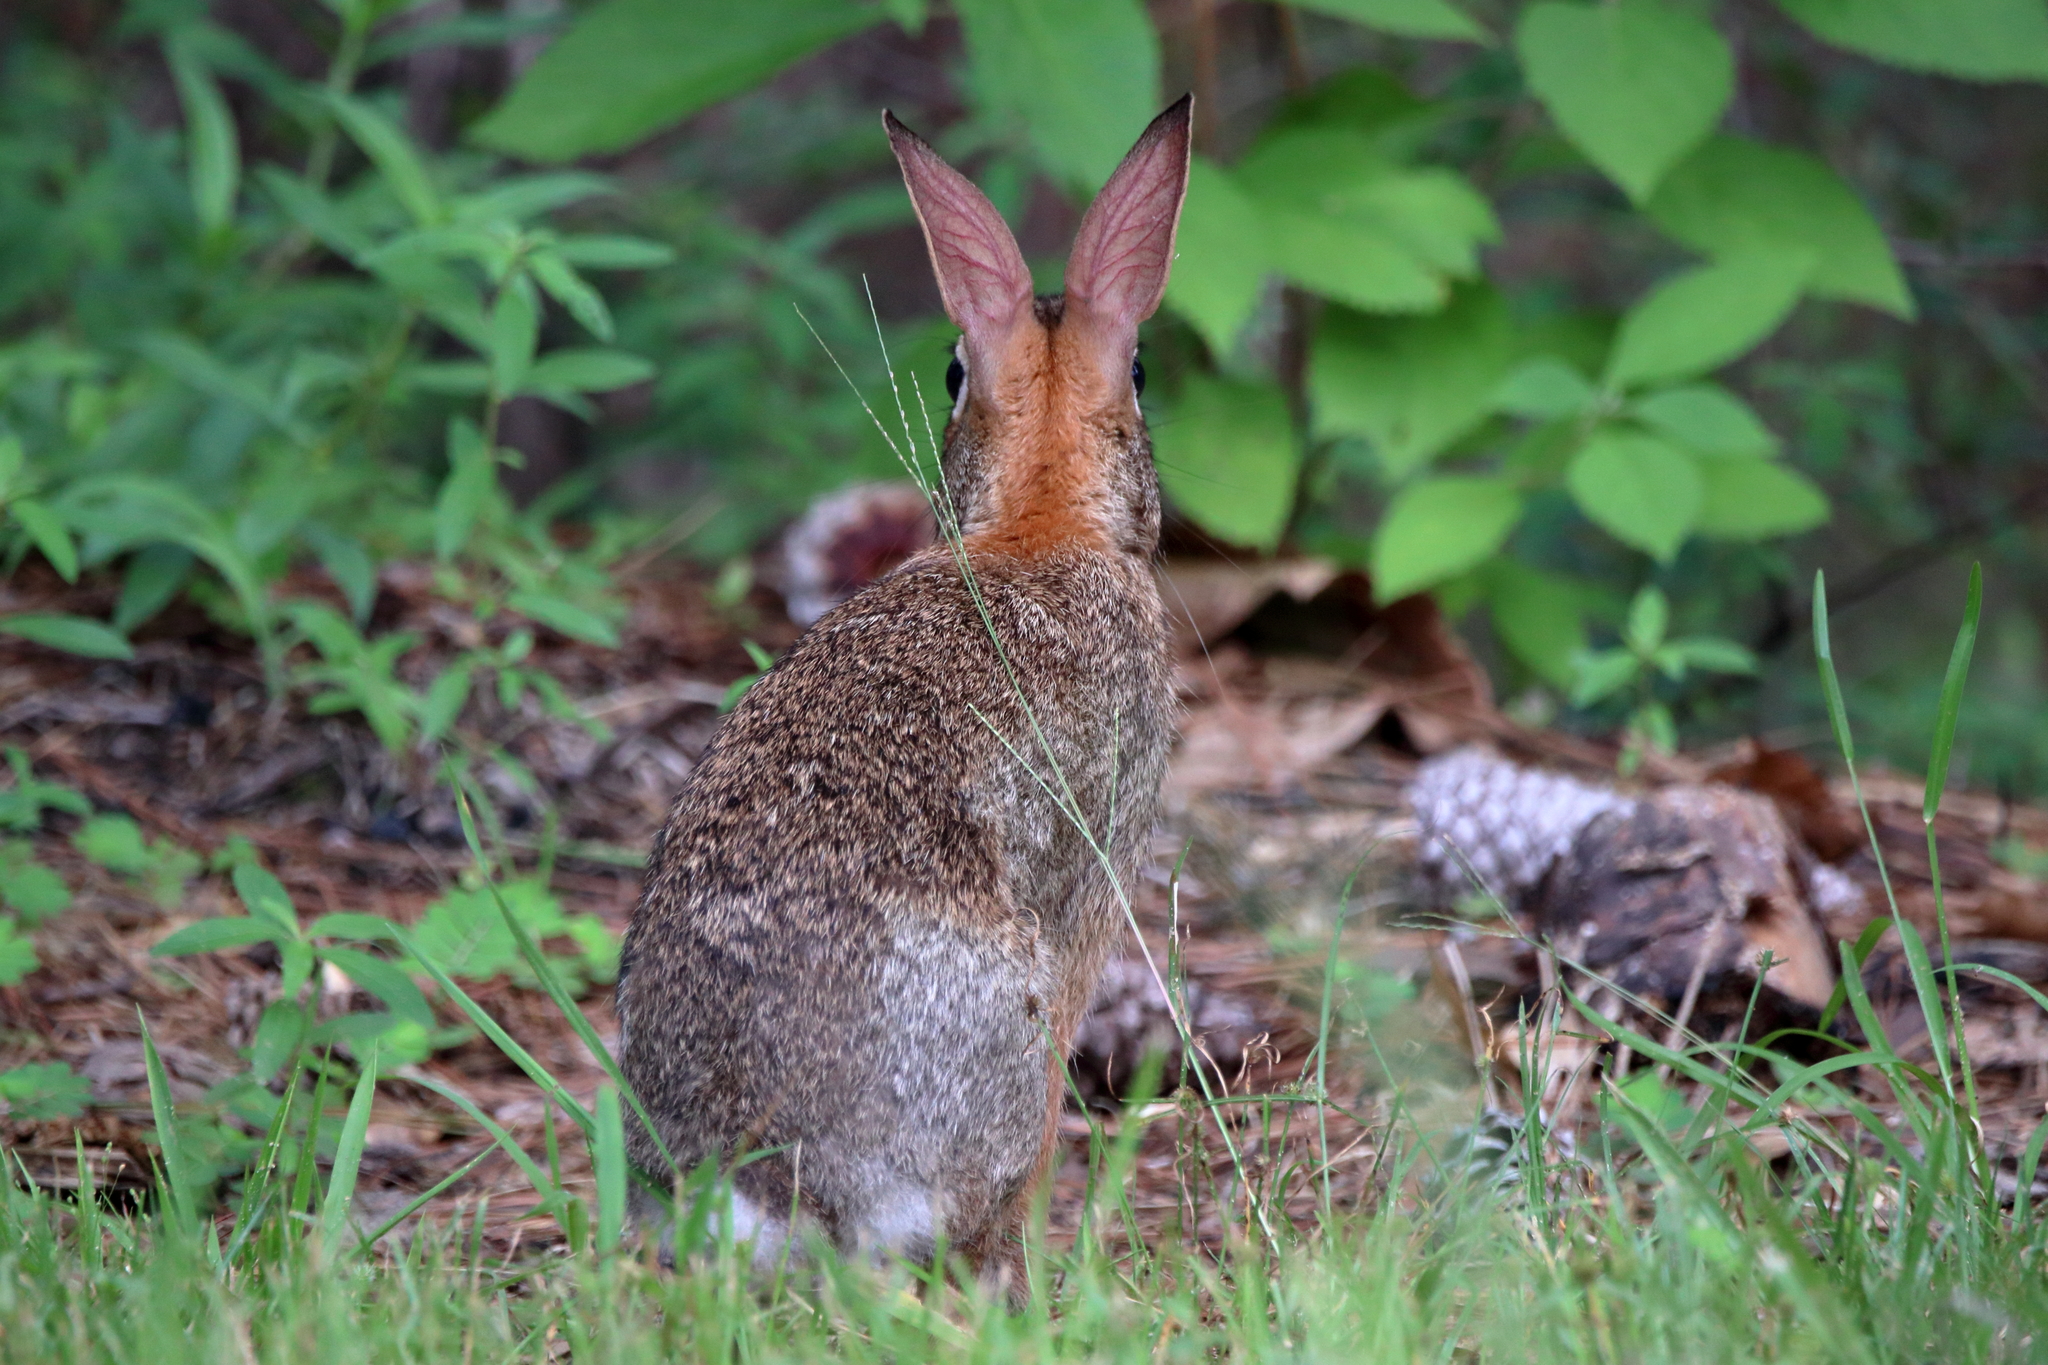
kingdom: Animalia
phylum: Chordata
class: Mammalia
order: Lagomorpha
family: Leporidae
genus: Sylvilagus
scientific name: Sylvilagus floridanus
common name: Eastern cottontail
